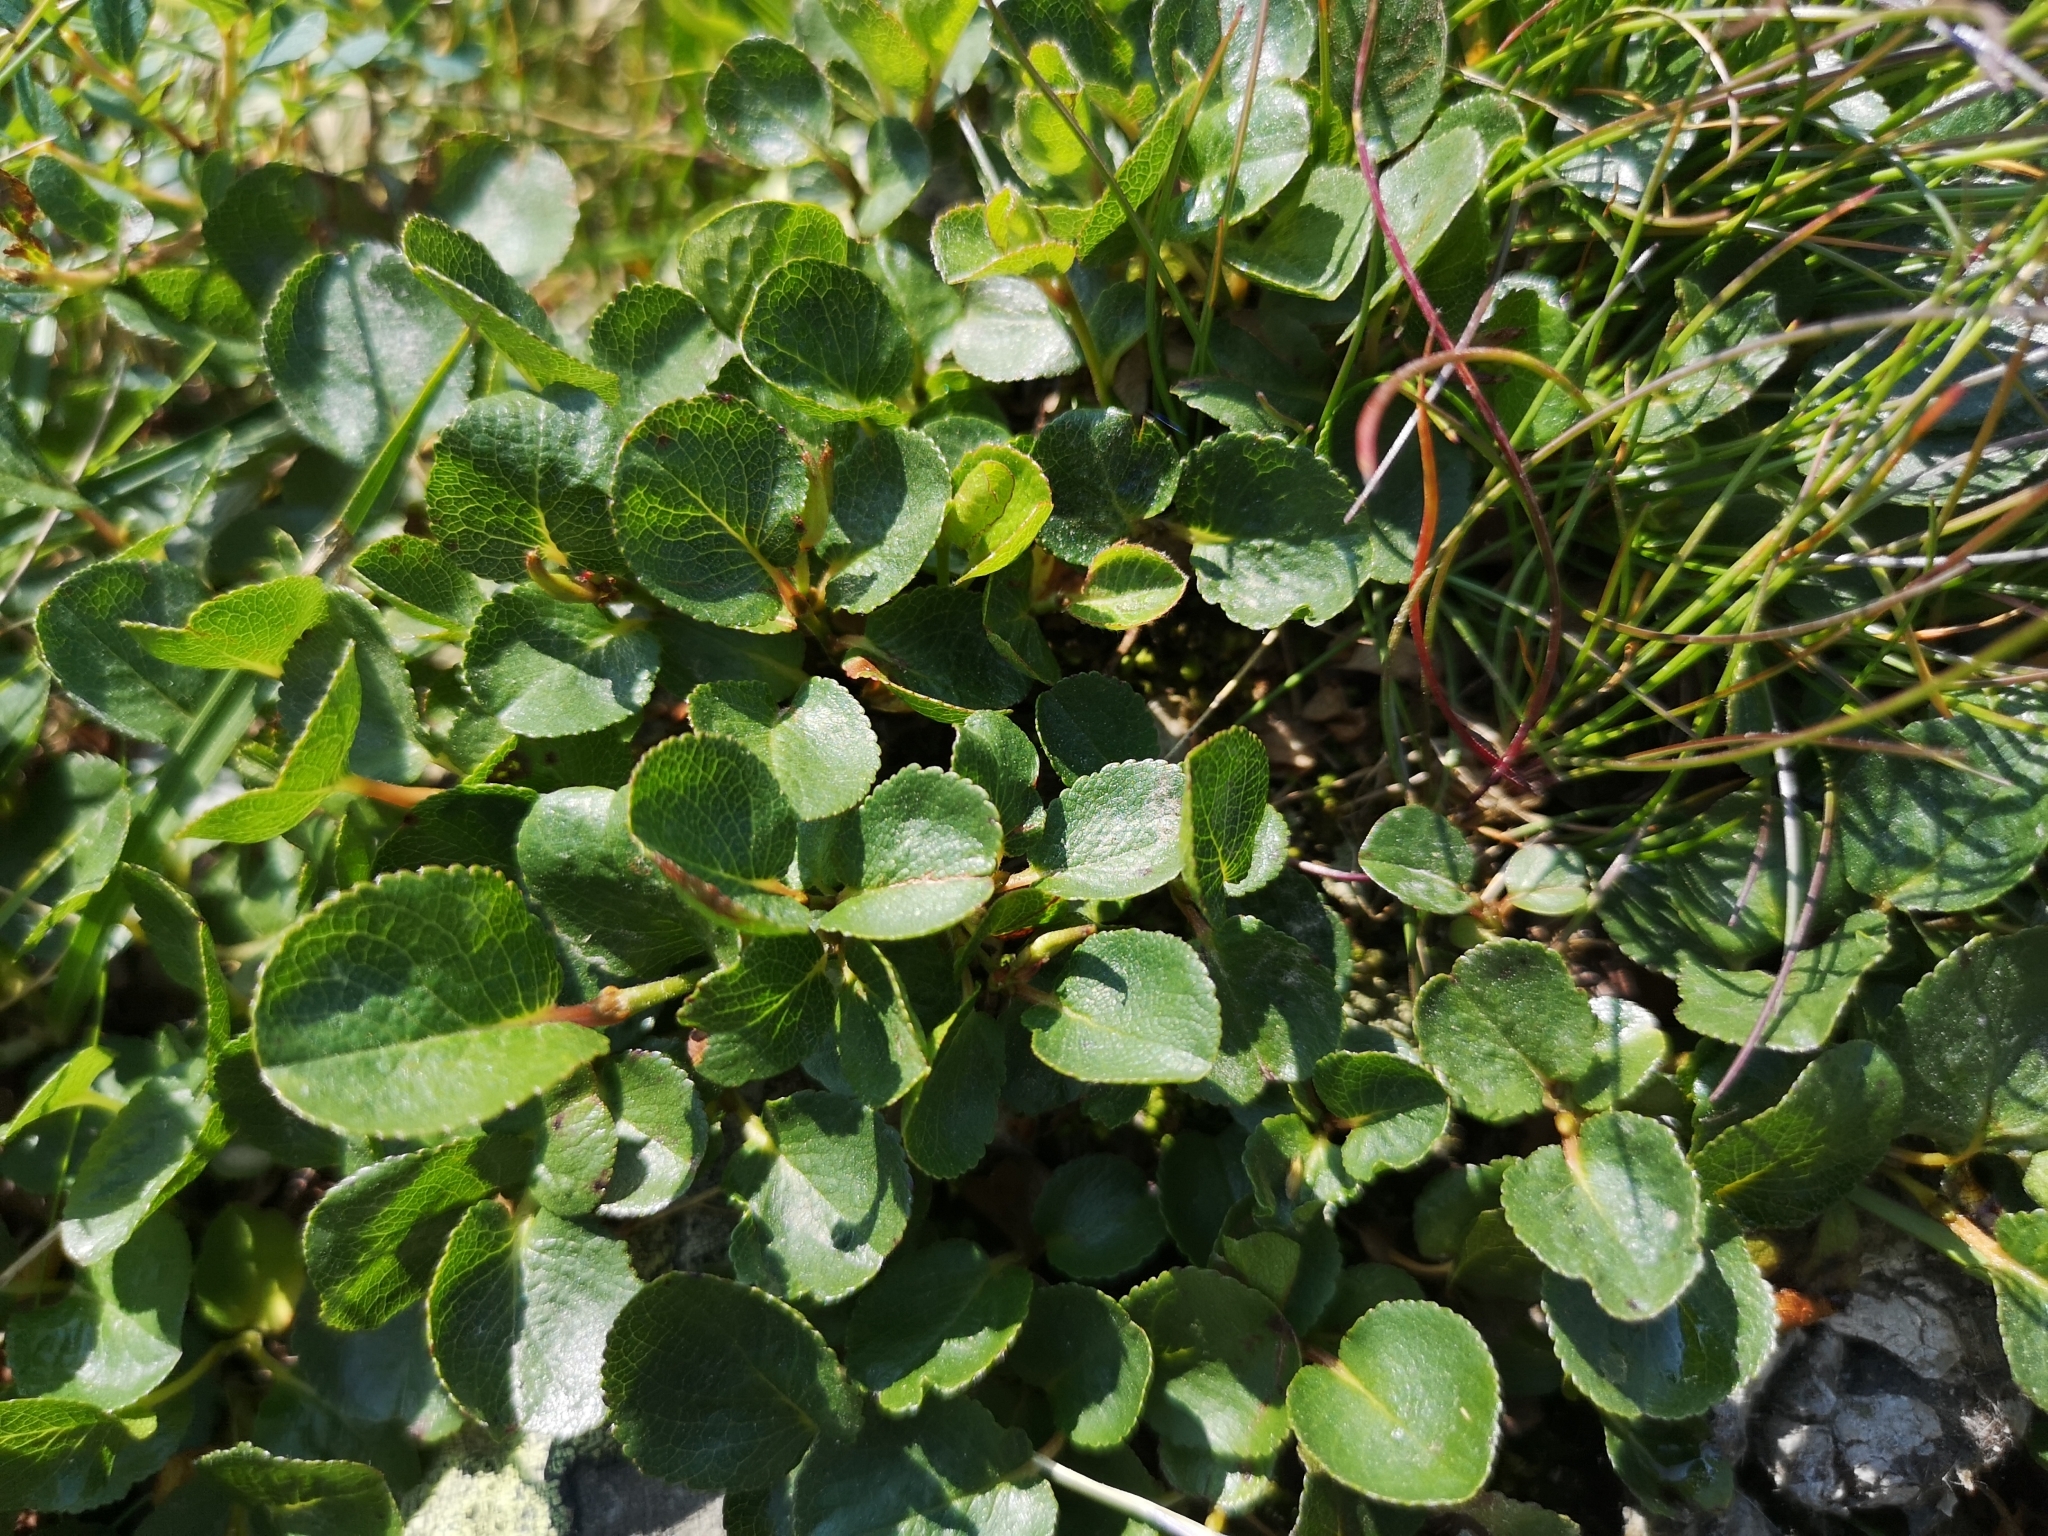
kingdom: Plantae
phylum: Tracheophyta
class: Magnoliopsida
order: Malpighiales
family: Salicaceae
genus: Salix
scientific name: Salix herbacea
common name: Dwarf willow
